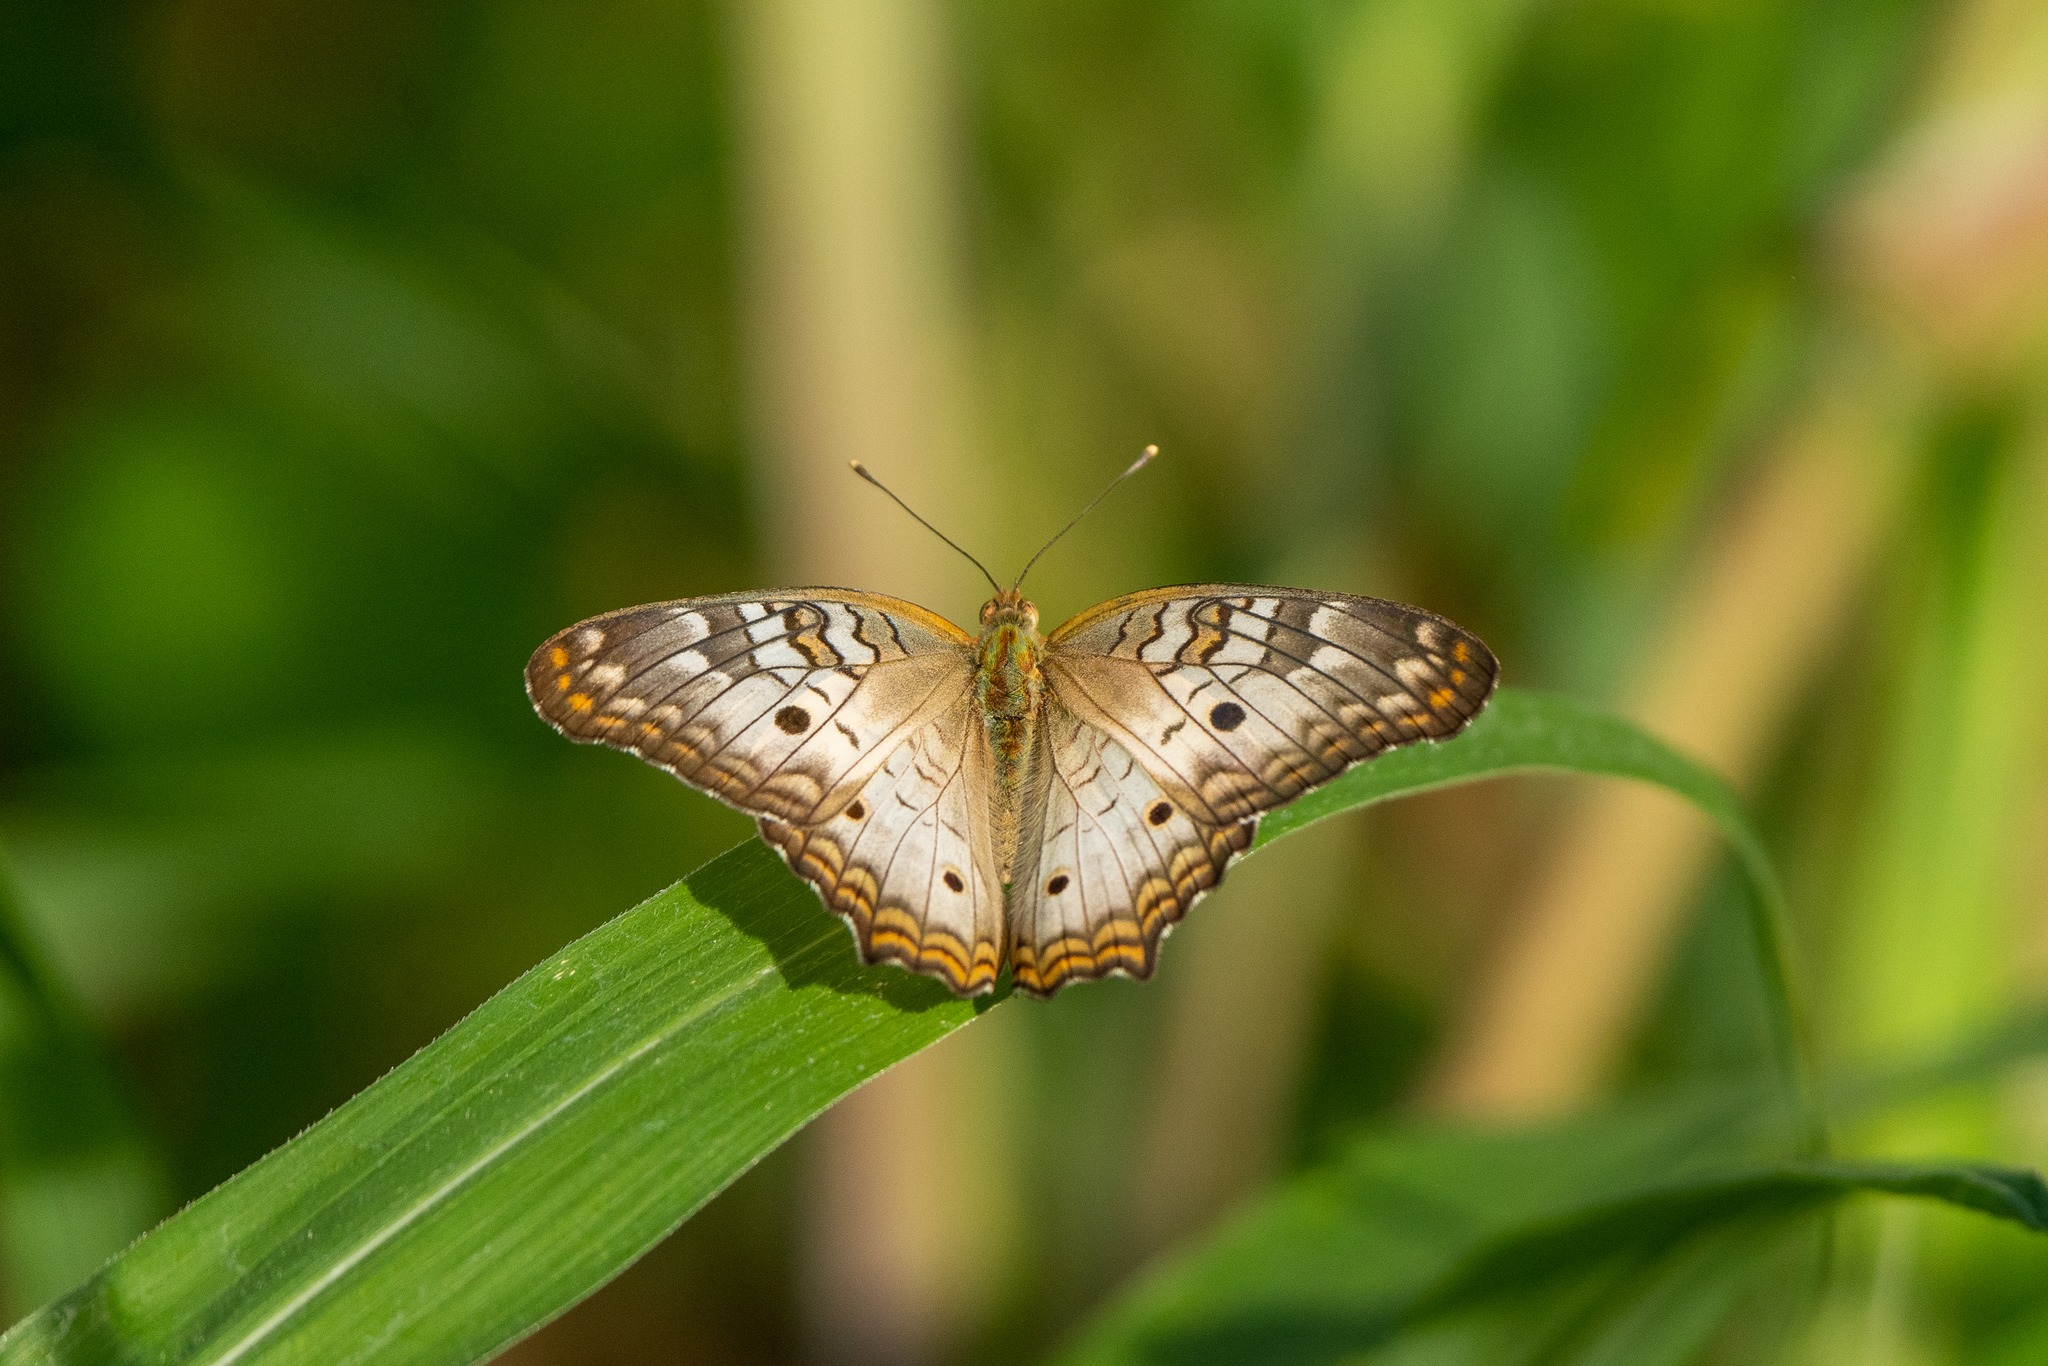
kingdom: Animalia
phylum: Arthropoda
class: Insecta
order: Lepidoptera
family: Nymphalidae
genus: Anartia
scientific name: Anartia jatrophae
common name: White peacock
